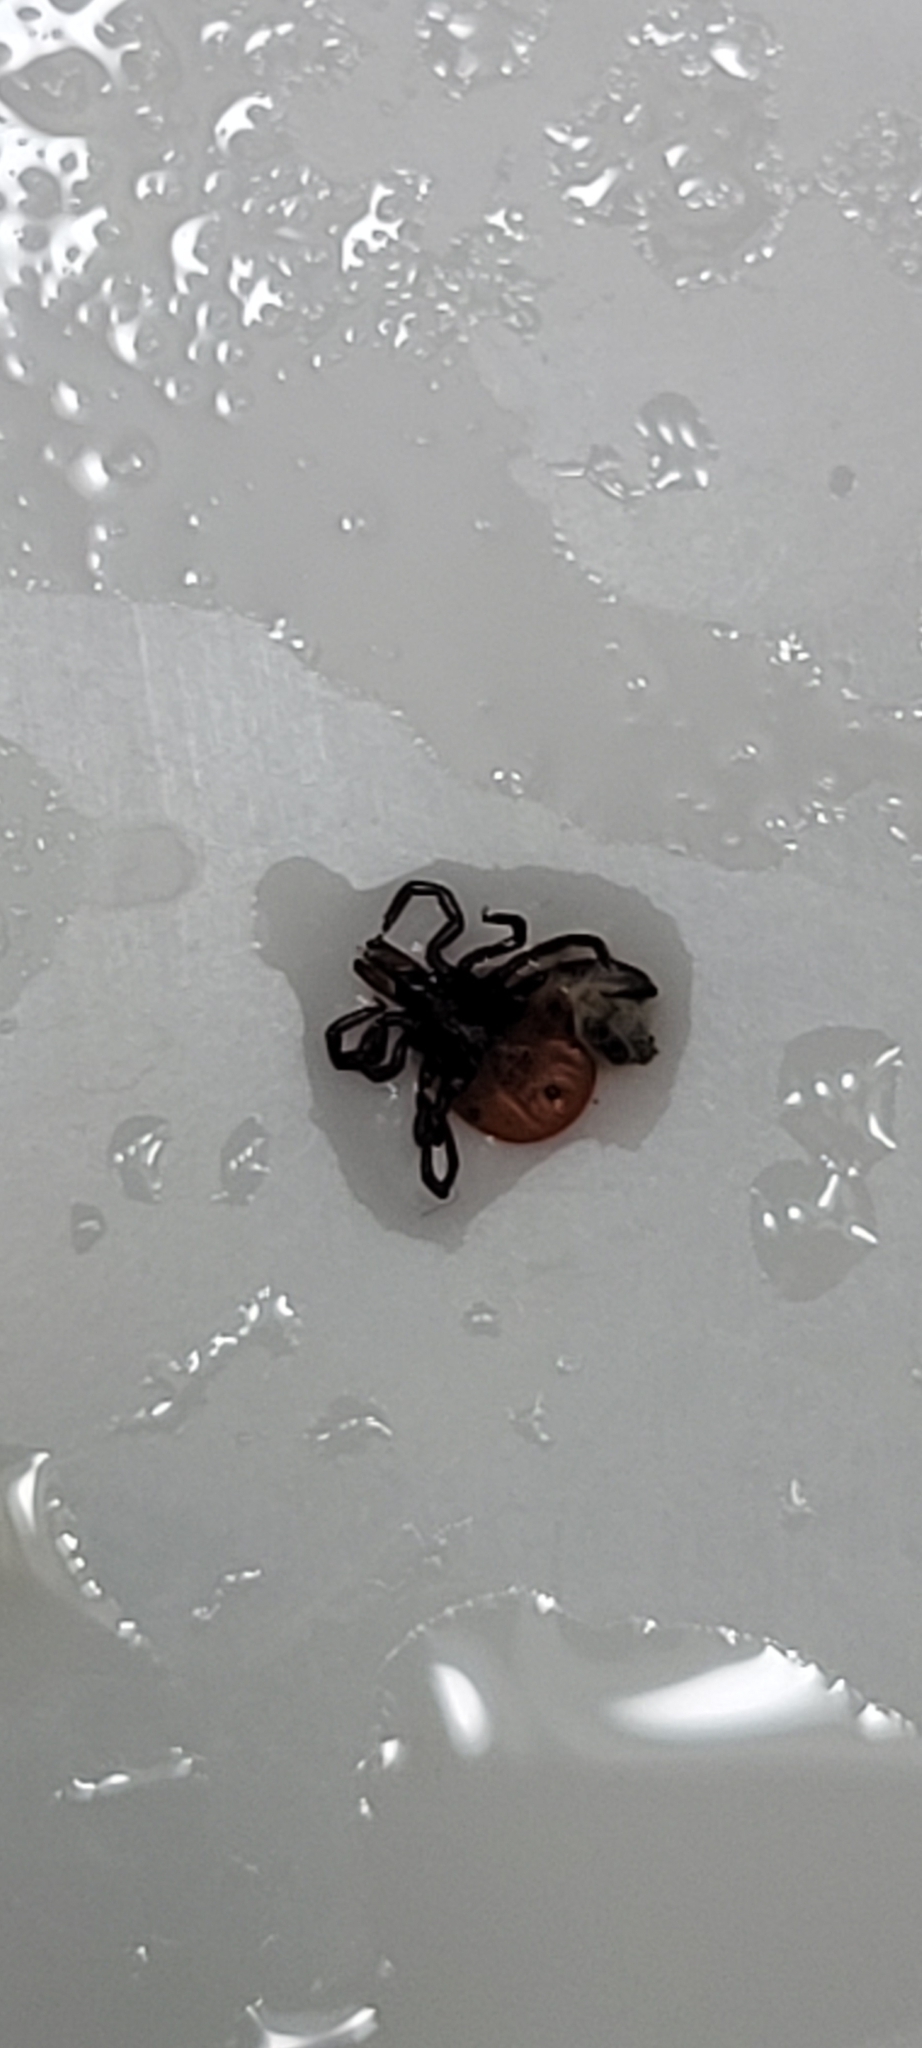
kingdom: Animalia
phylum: Arthropoda
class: Arachnida
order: Ixodida
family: Ixodidae
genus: Ixodes
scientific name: Ixodes scapularis
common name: Black legged tick
